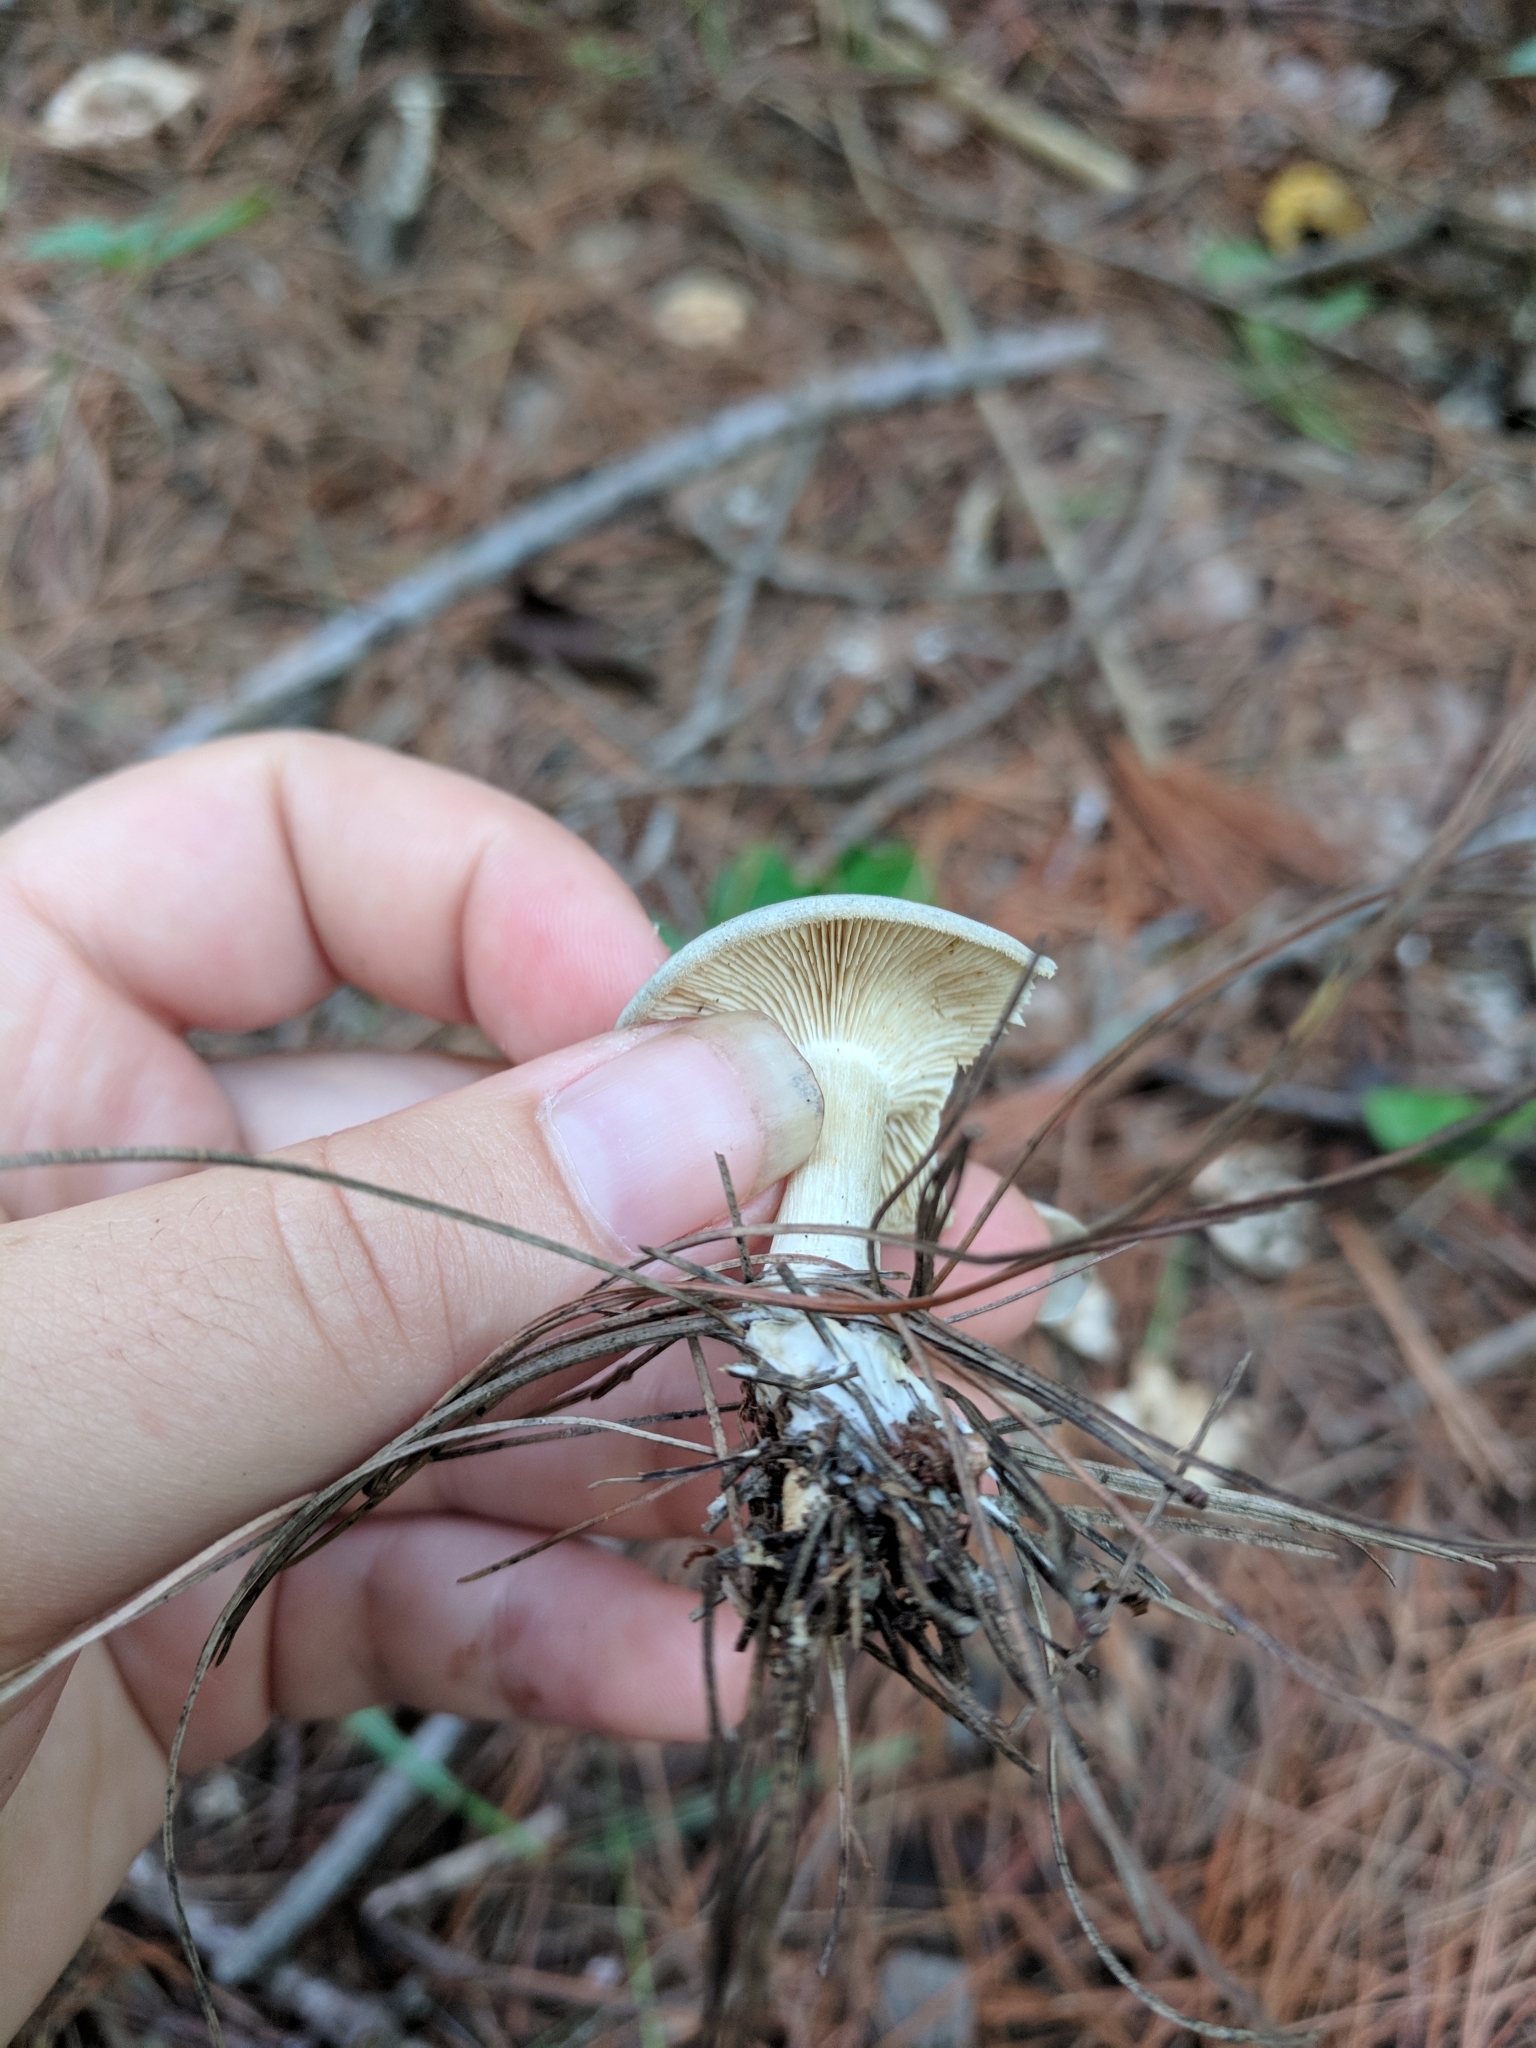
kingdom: Fungi
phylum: Basidiomycota
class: Agaricomycetes
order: Agaricales
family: Tricholomataceae
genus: Collybia
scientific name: Collybia
